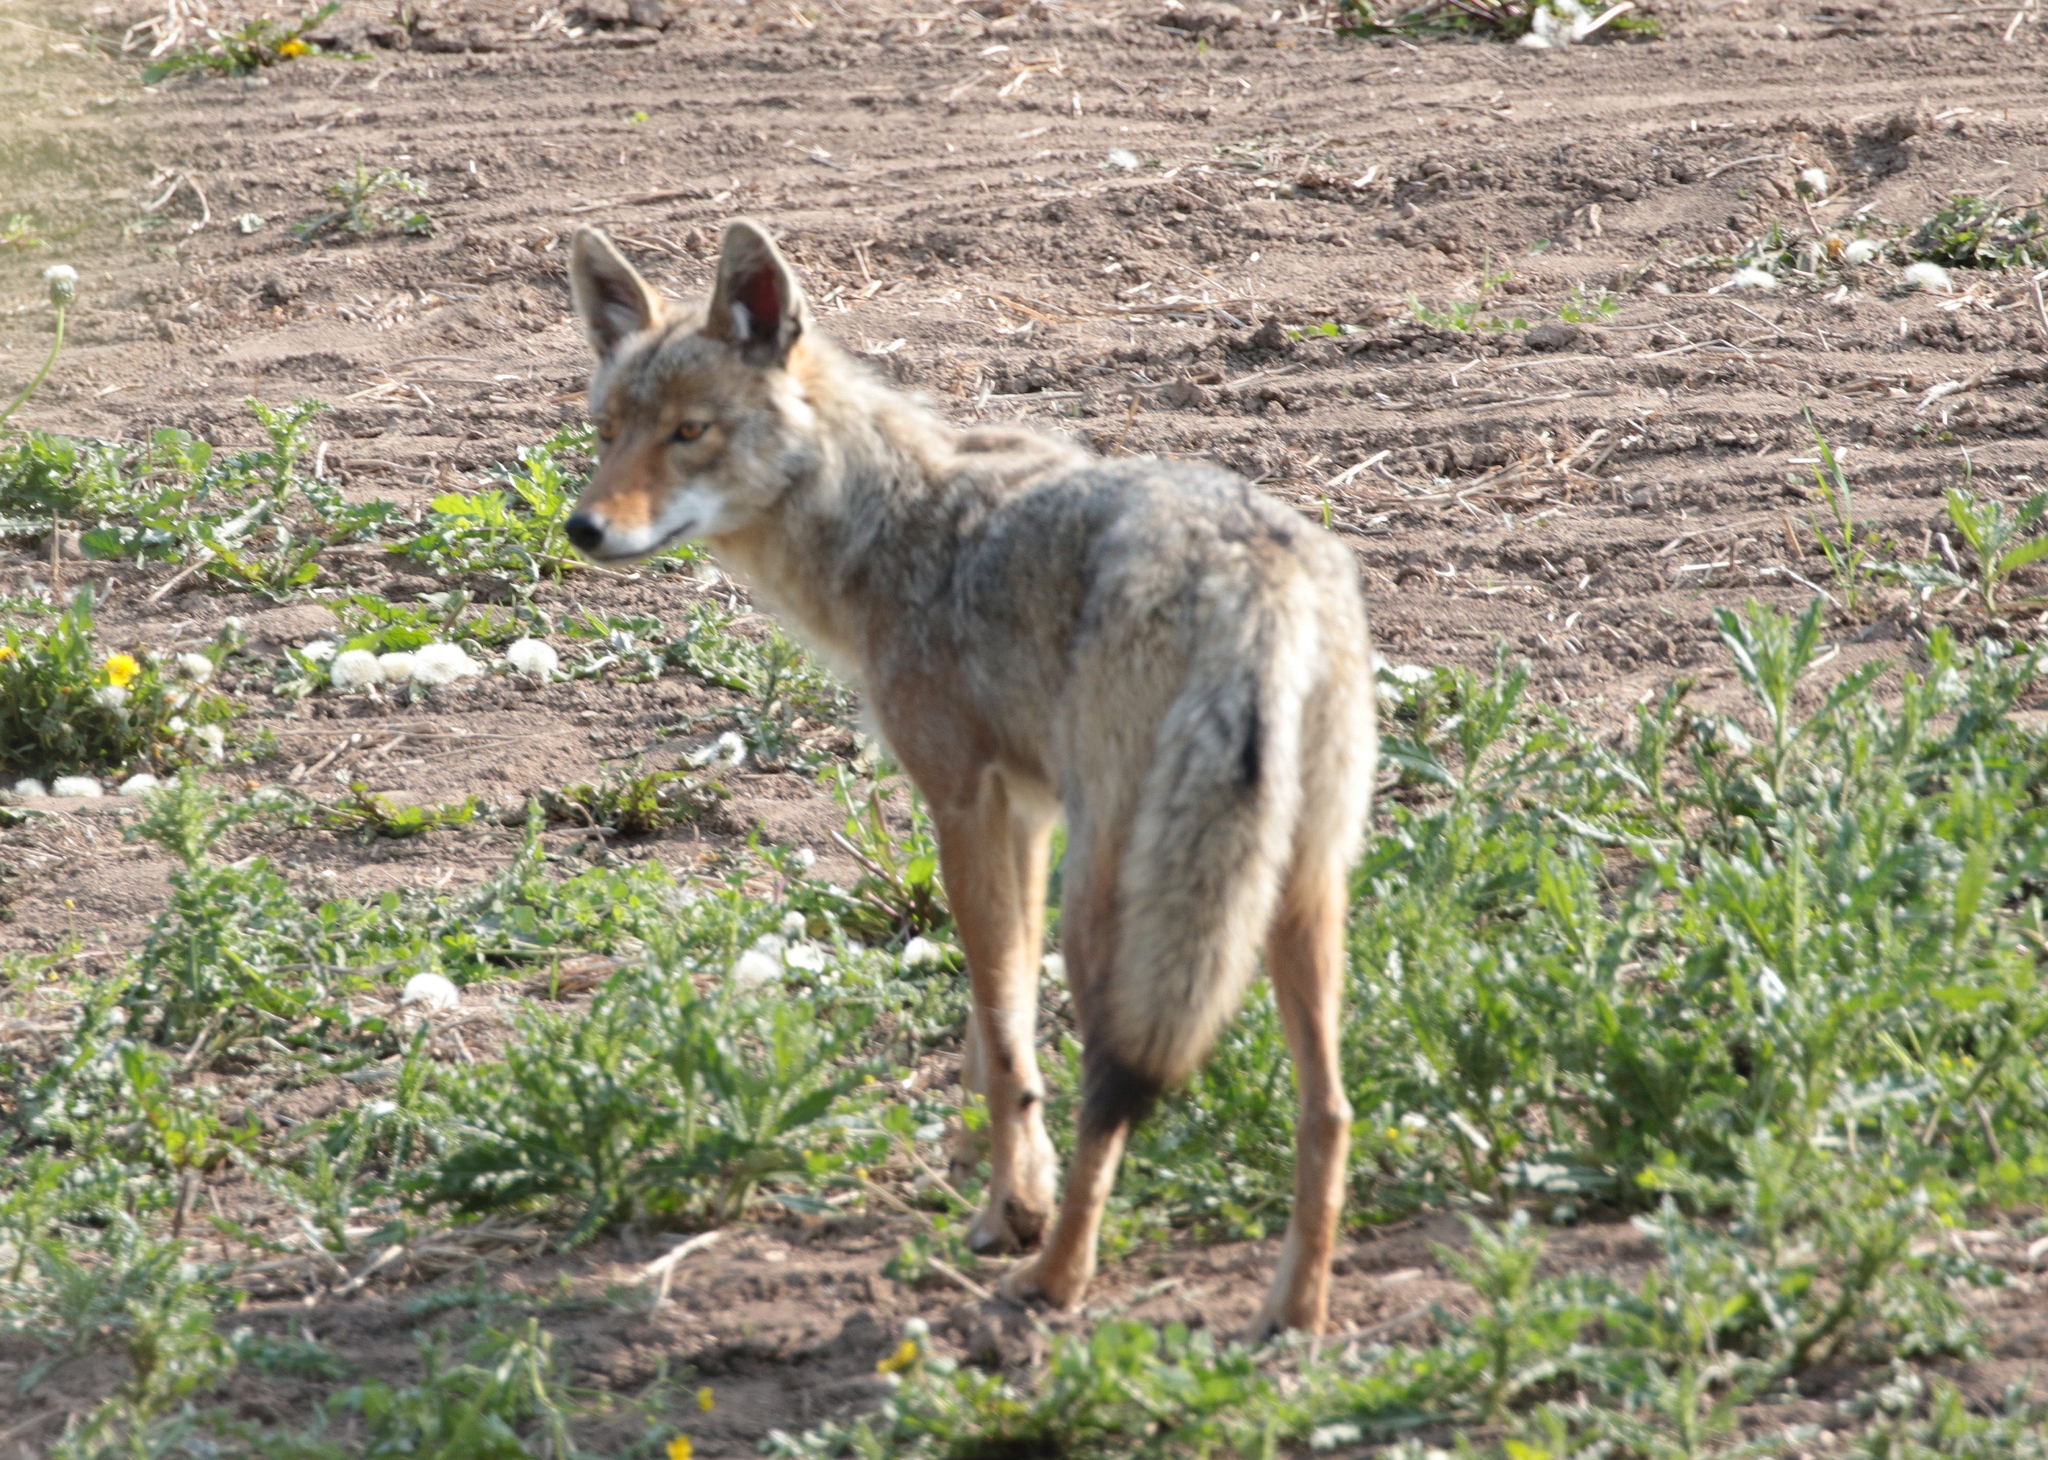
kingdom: Animalia
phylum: Chordata
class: Mammalia
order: Carnivora
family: Canidae
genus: Canis
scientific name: Canis latrans
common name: Coyote
